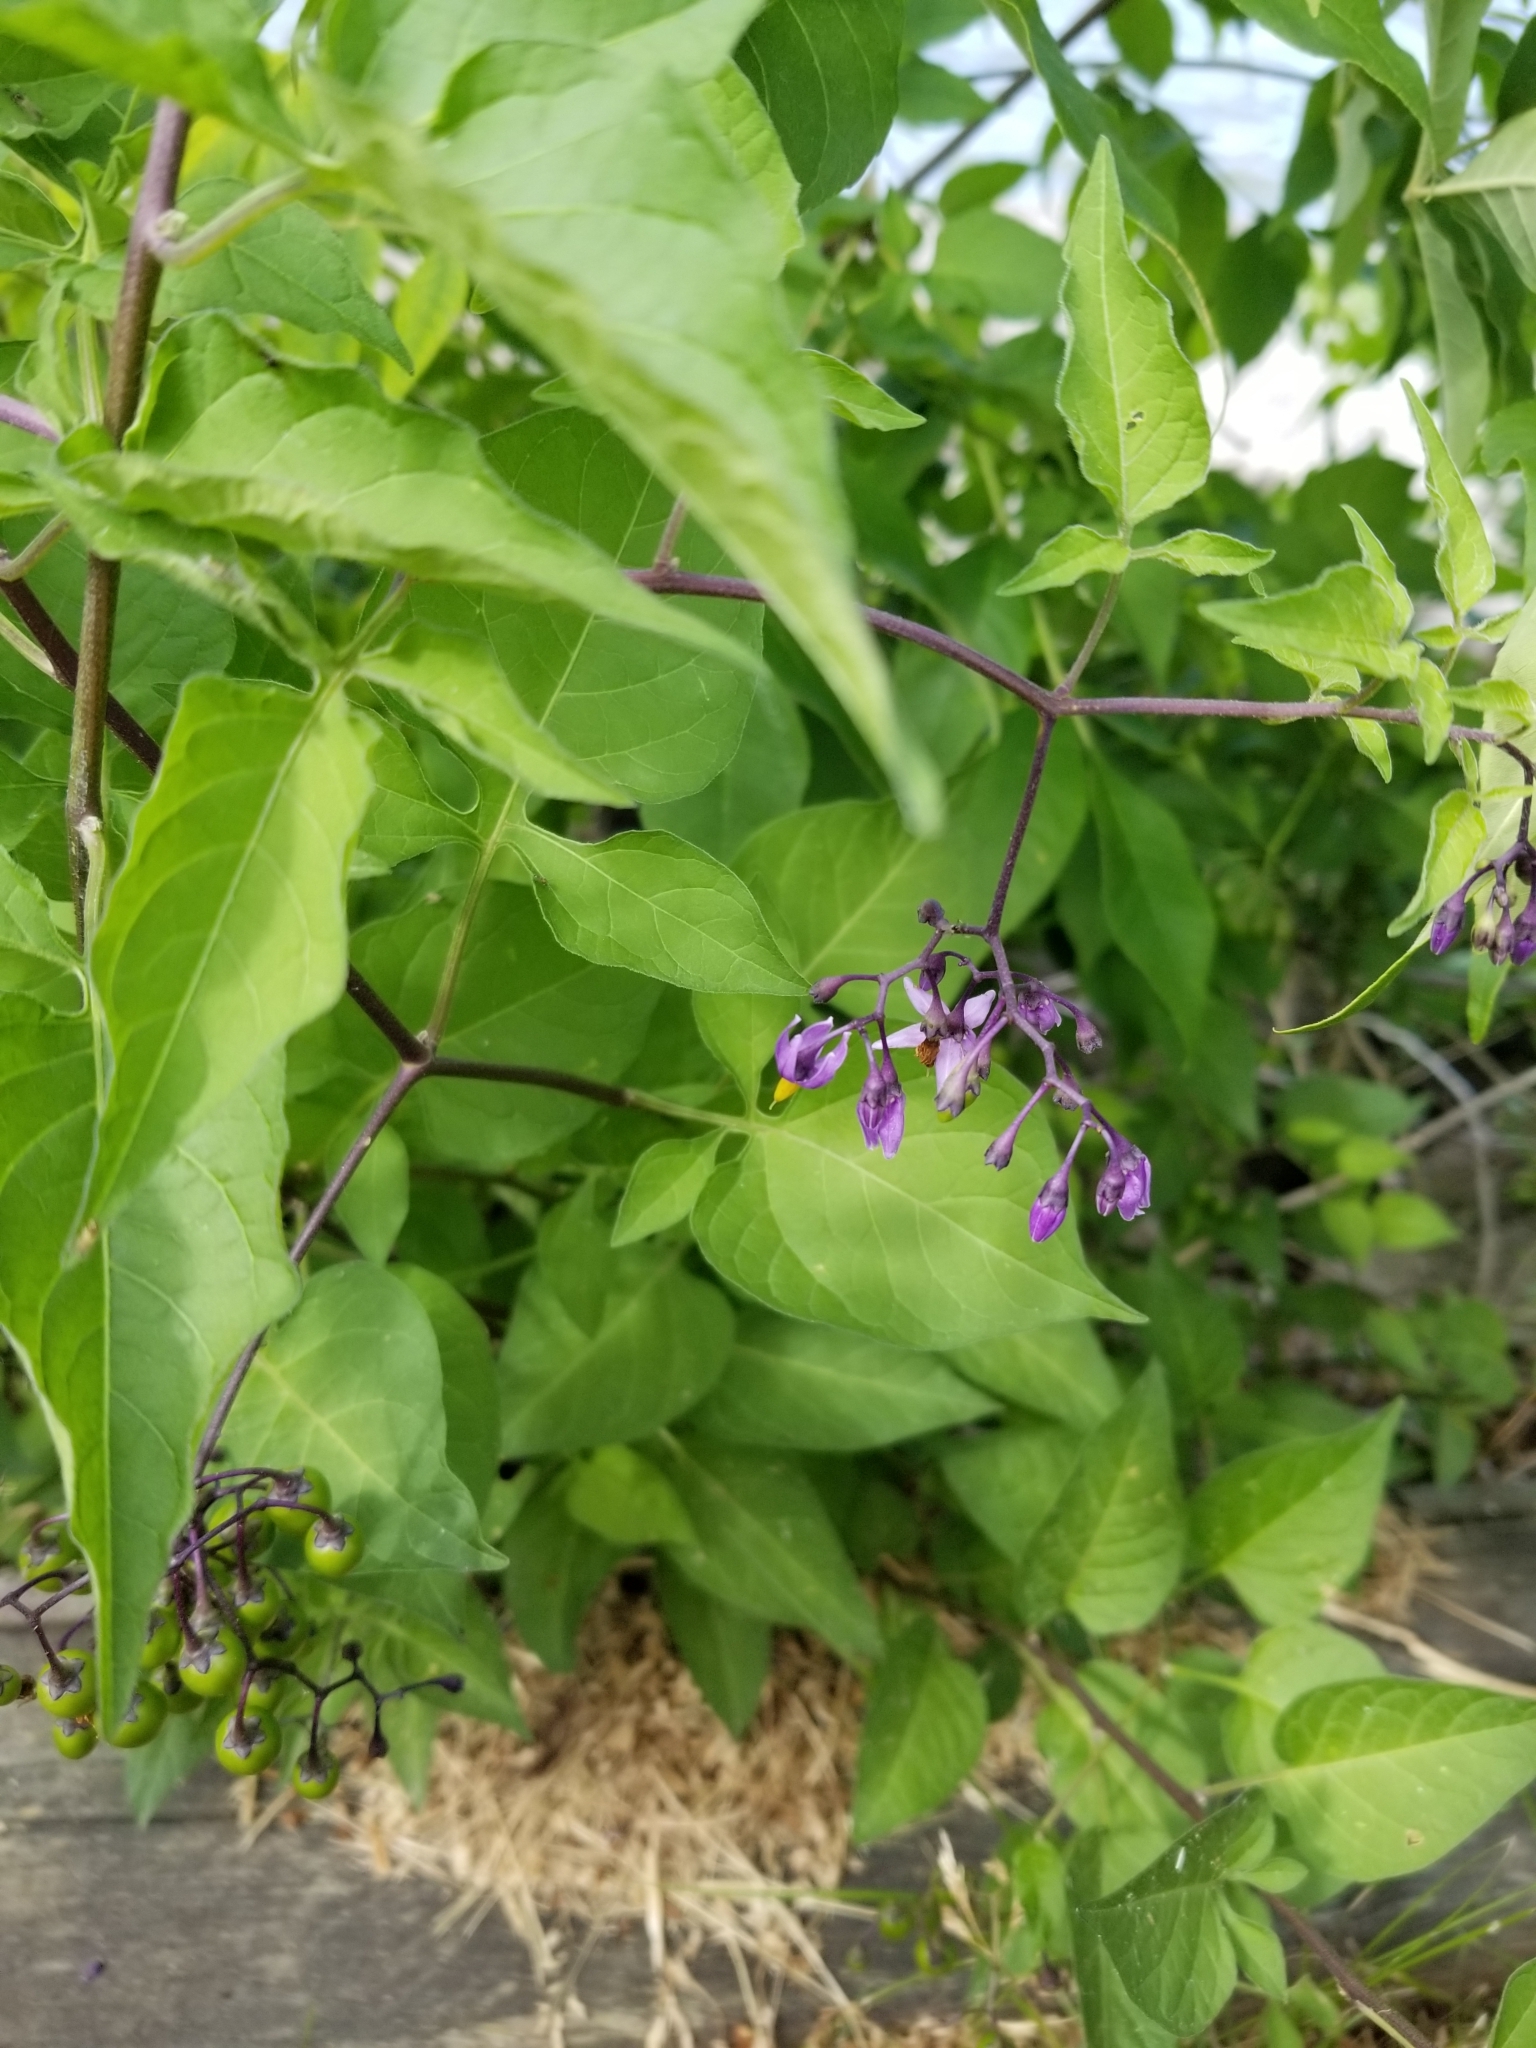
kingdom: Plantae
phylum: Tracheophyta
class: Magnoliopsida
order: Solanales
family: Solanaceae
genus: Solanum
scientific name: Solanum dulcamara
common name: Climbing nightshade
